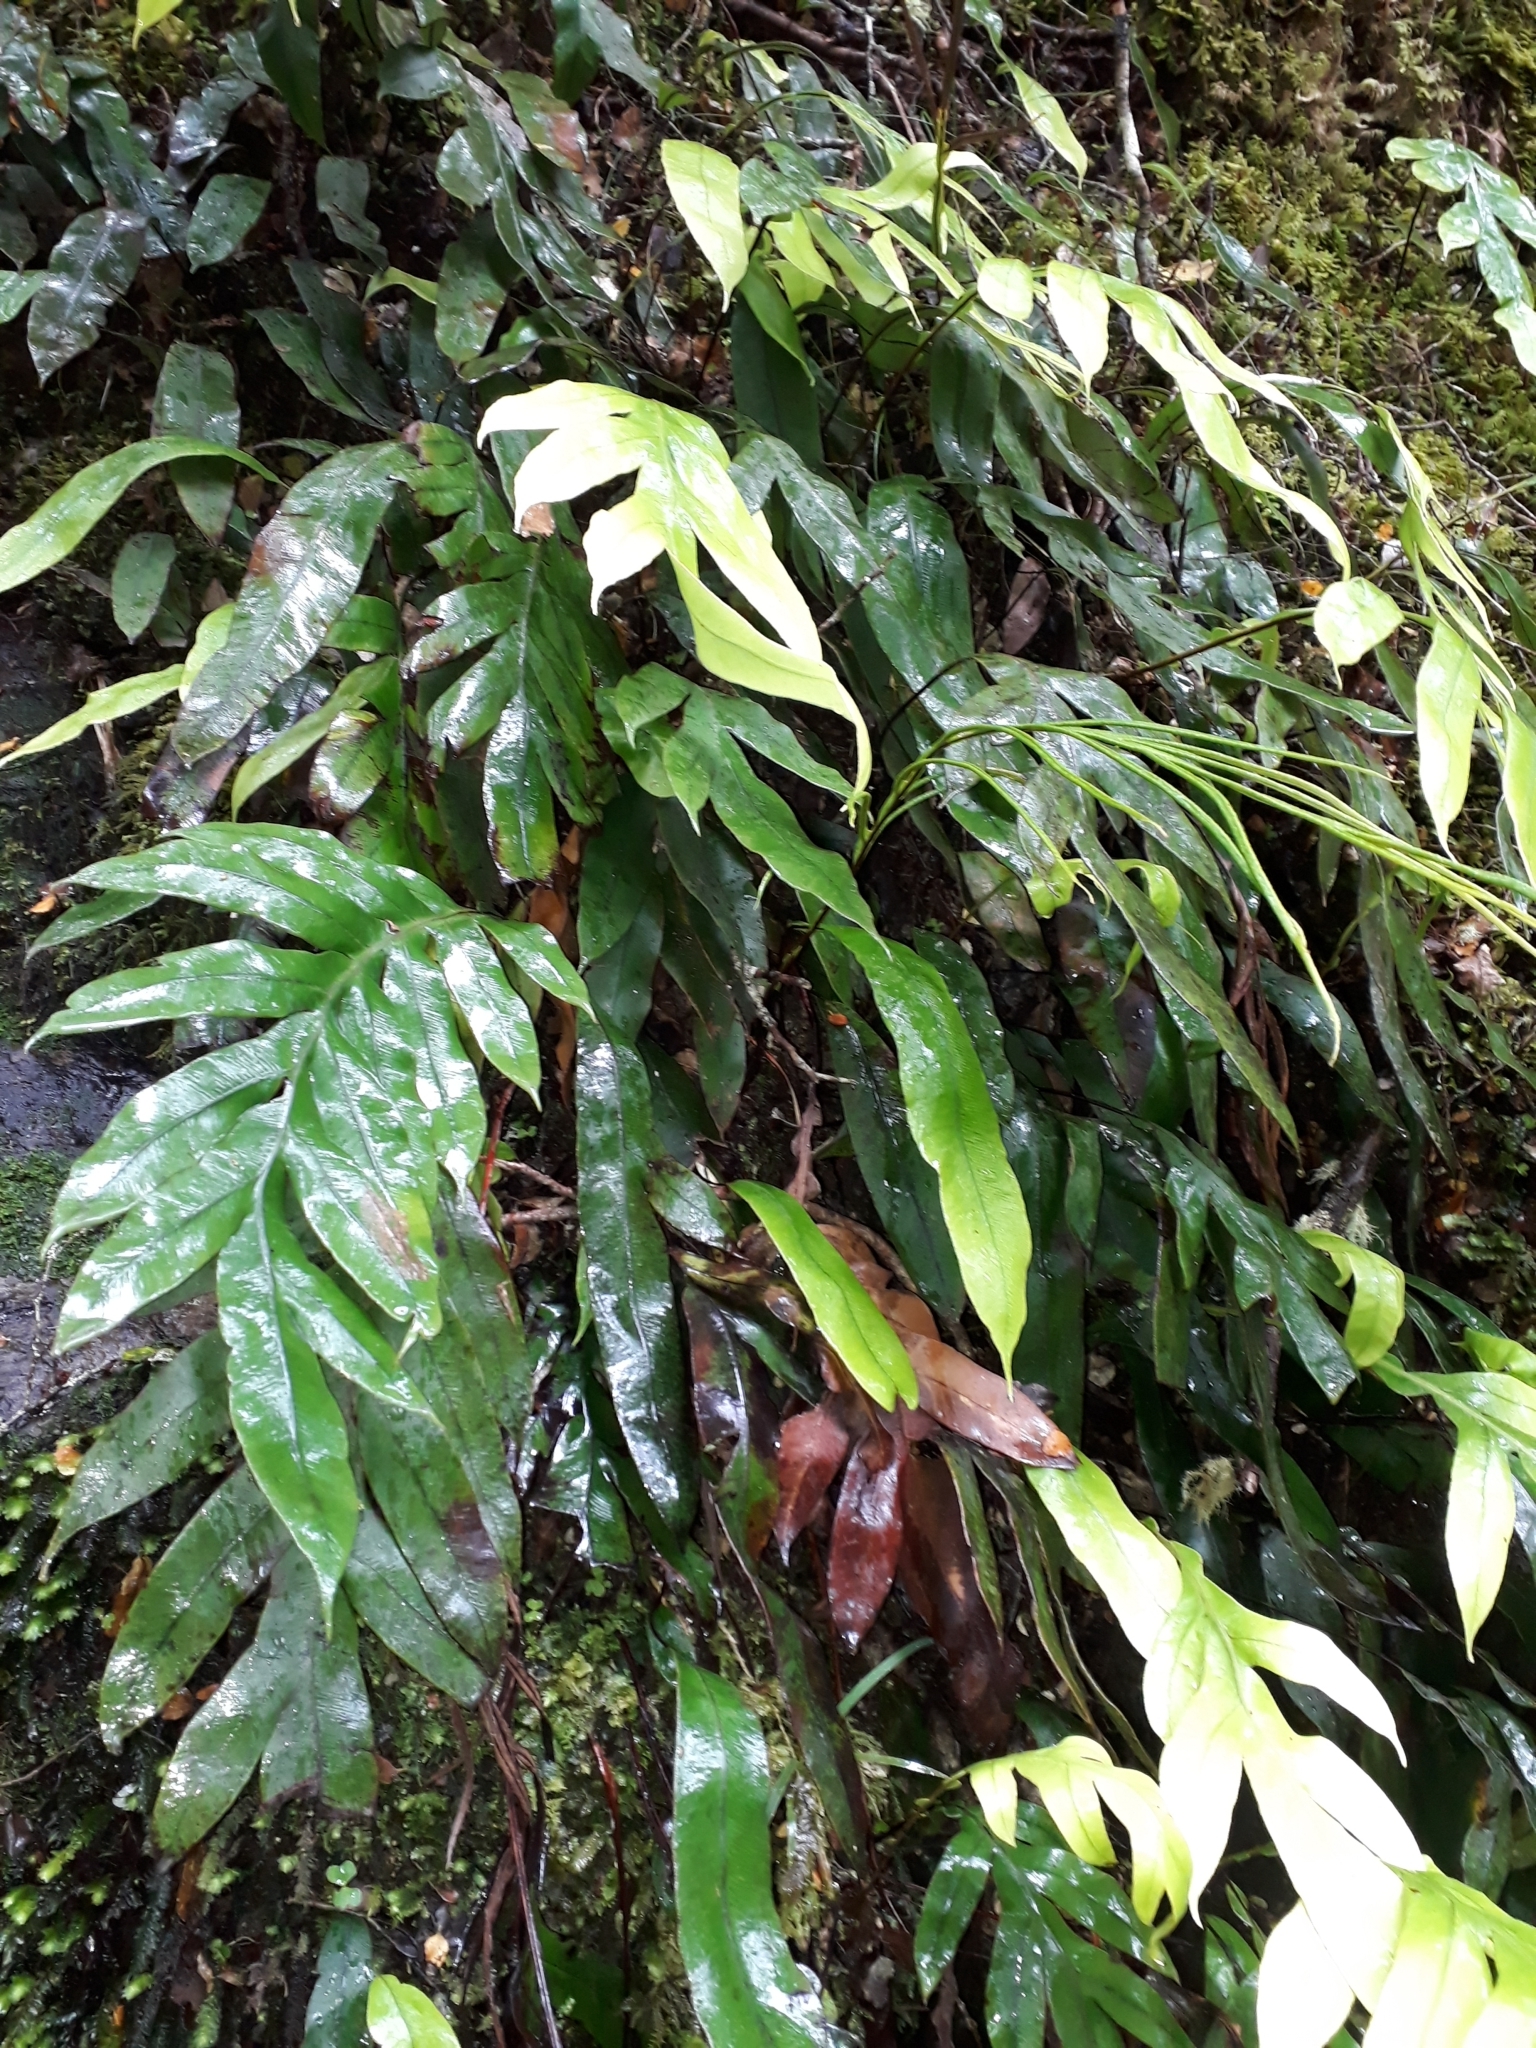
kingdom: Plantae
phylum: Tracheophyta
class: Polypodiopsida
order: Polypodiales
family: Blechnaceae
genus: Austroblechnum
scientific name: Austroblechnum colensoi
